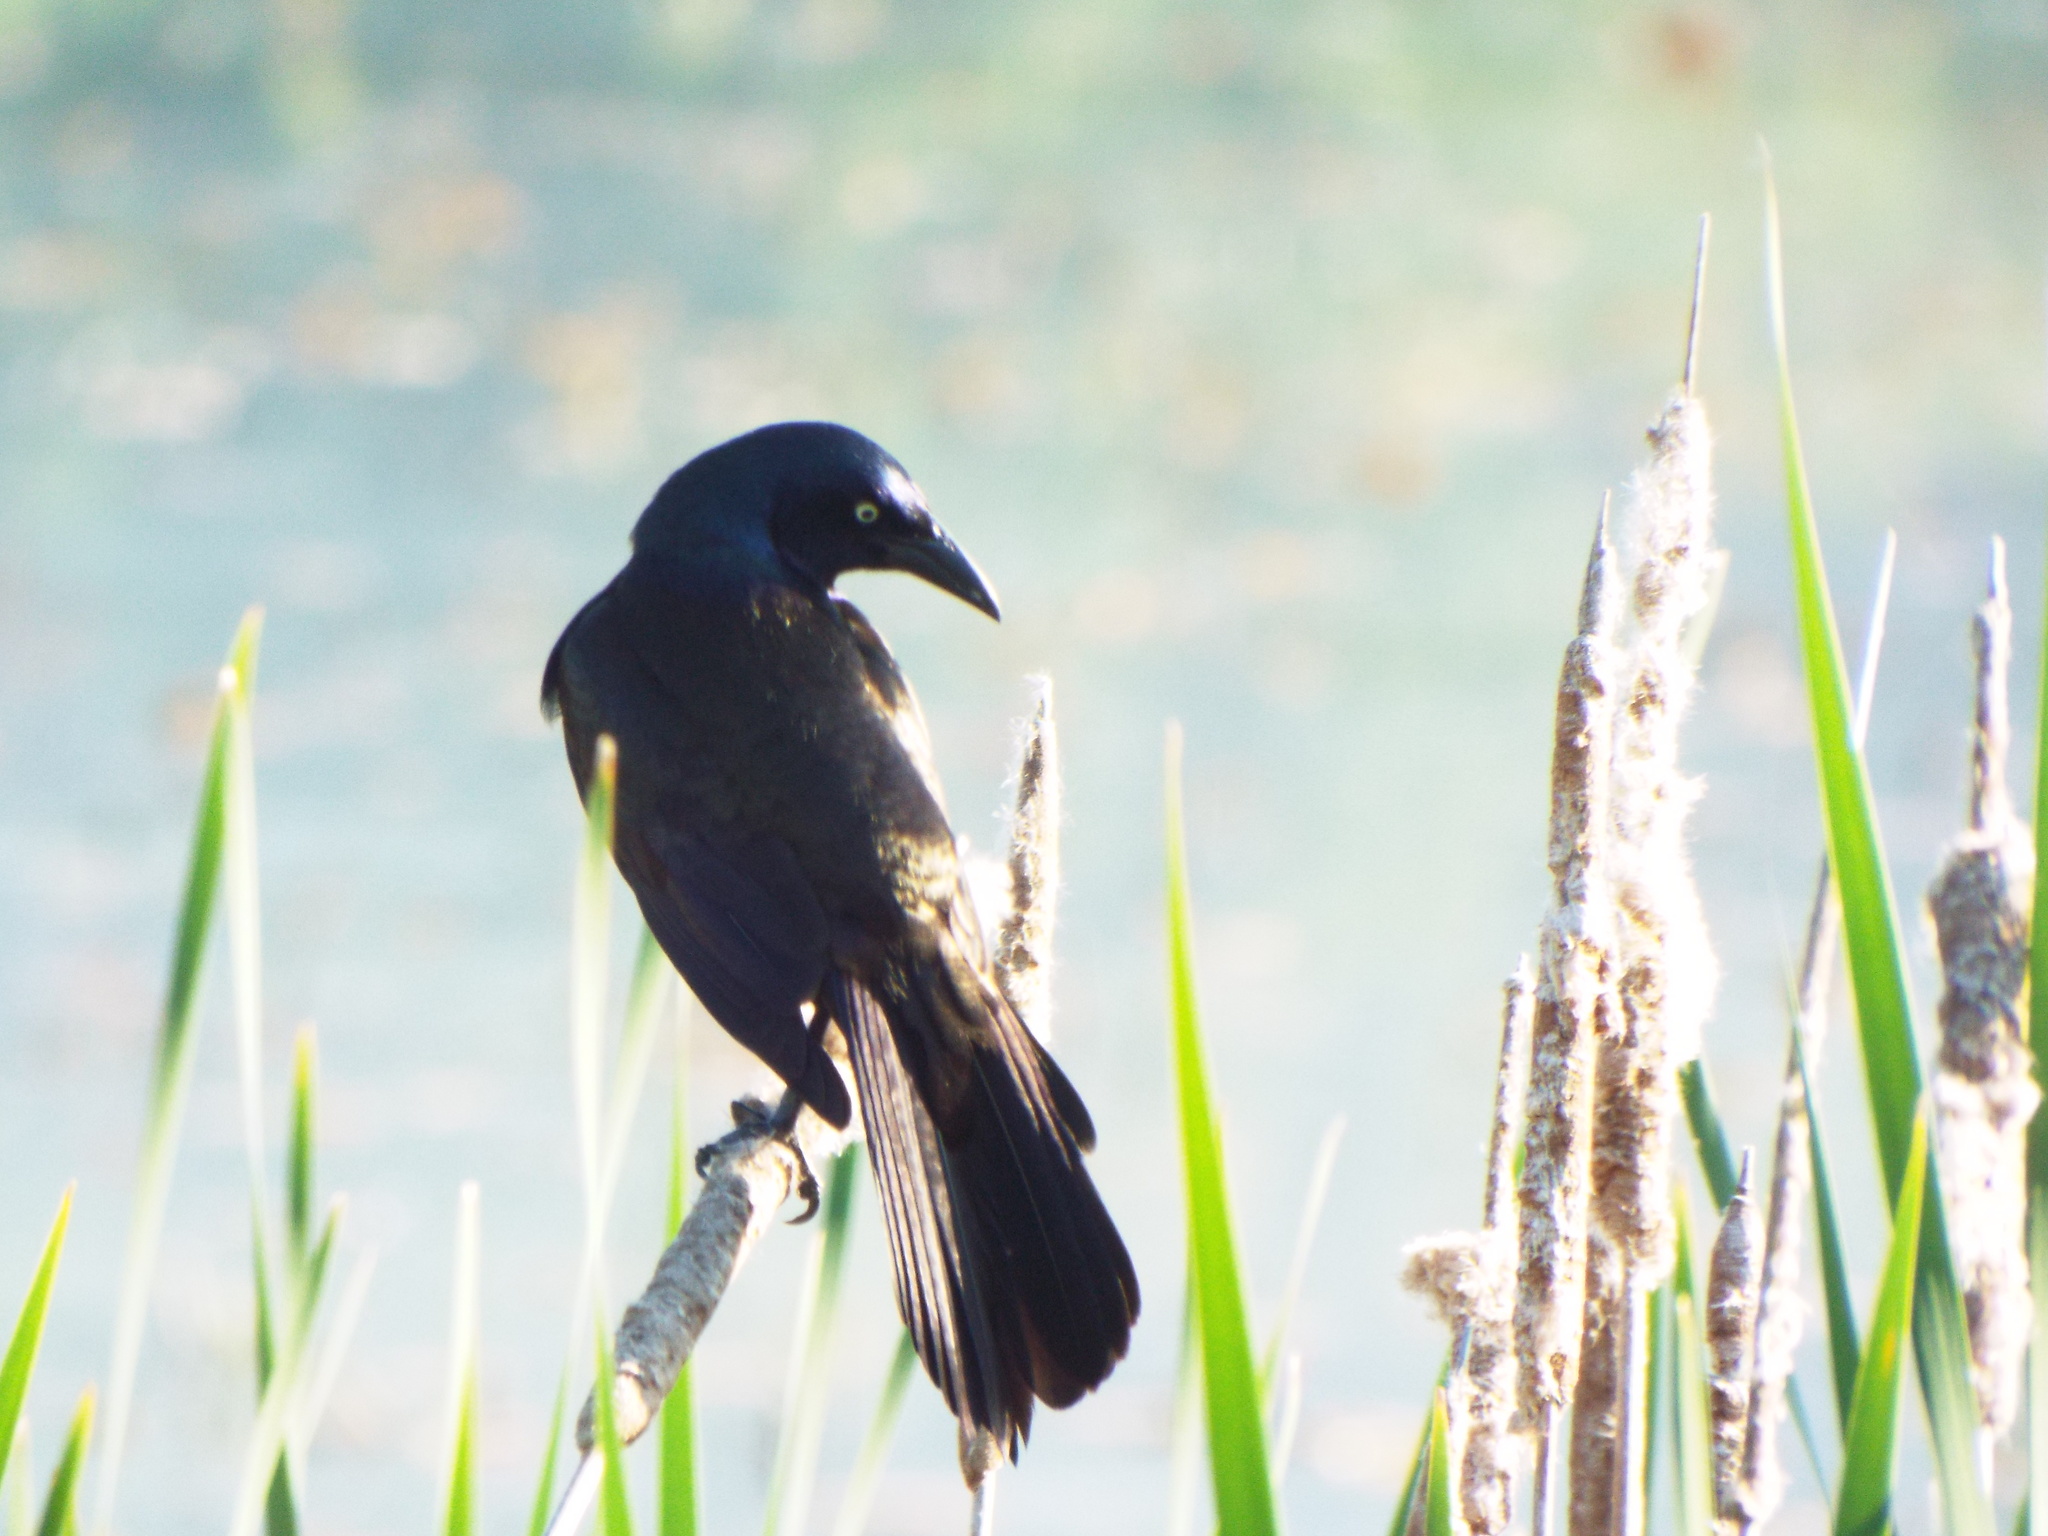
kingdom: Animalia
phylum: Chordata
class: Aves
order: Passeriformes
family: Icteridae
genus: Quiscalus
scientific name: Quiscalus quiscula
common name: Common grackle
